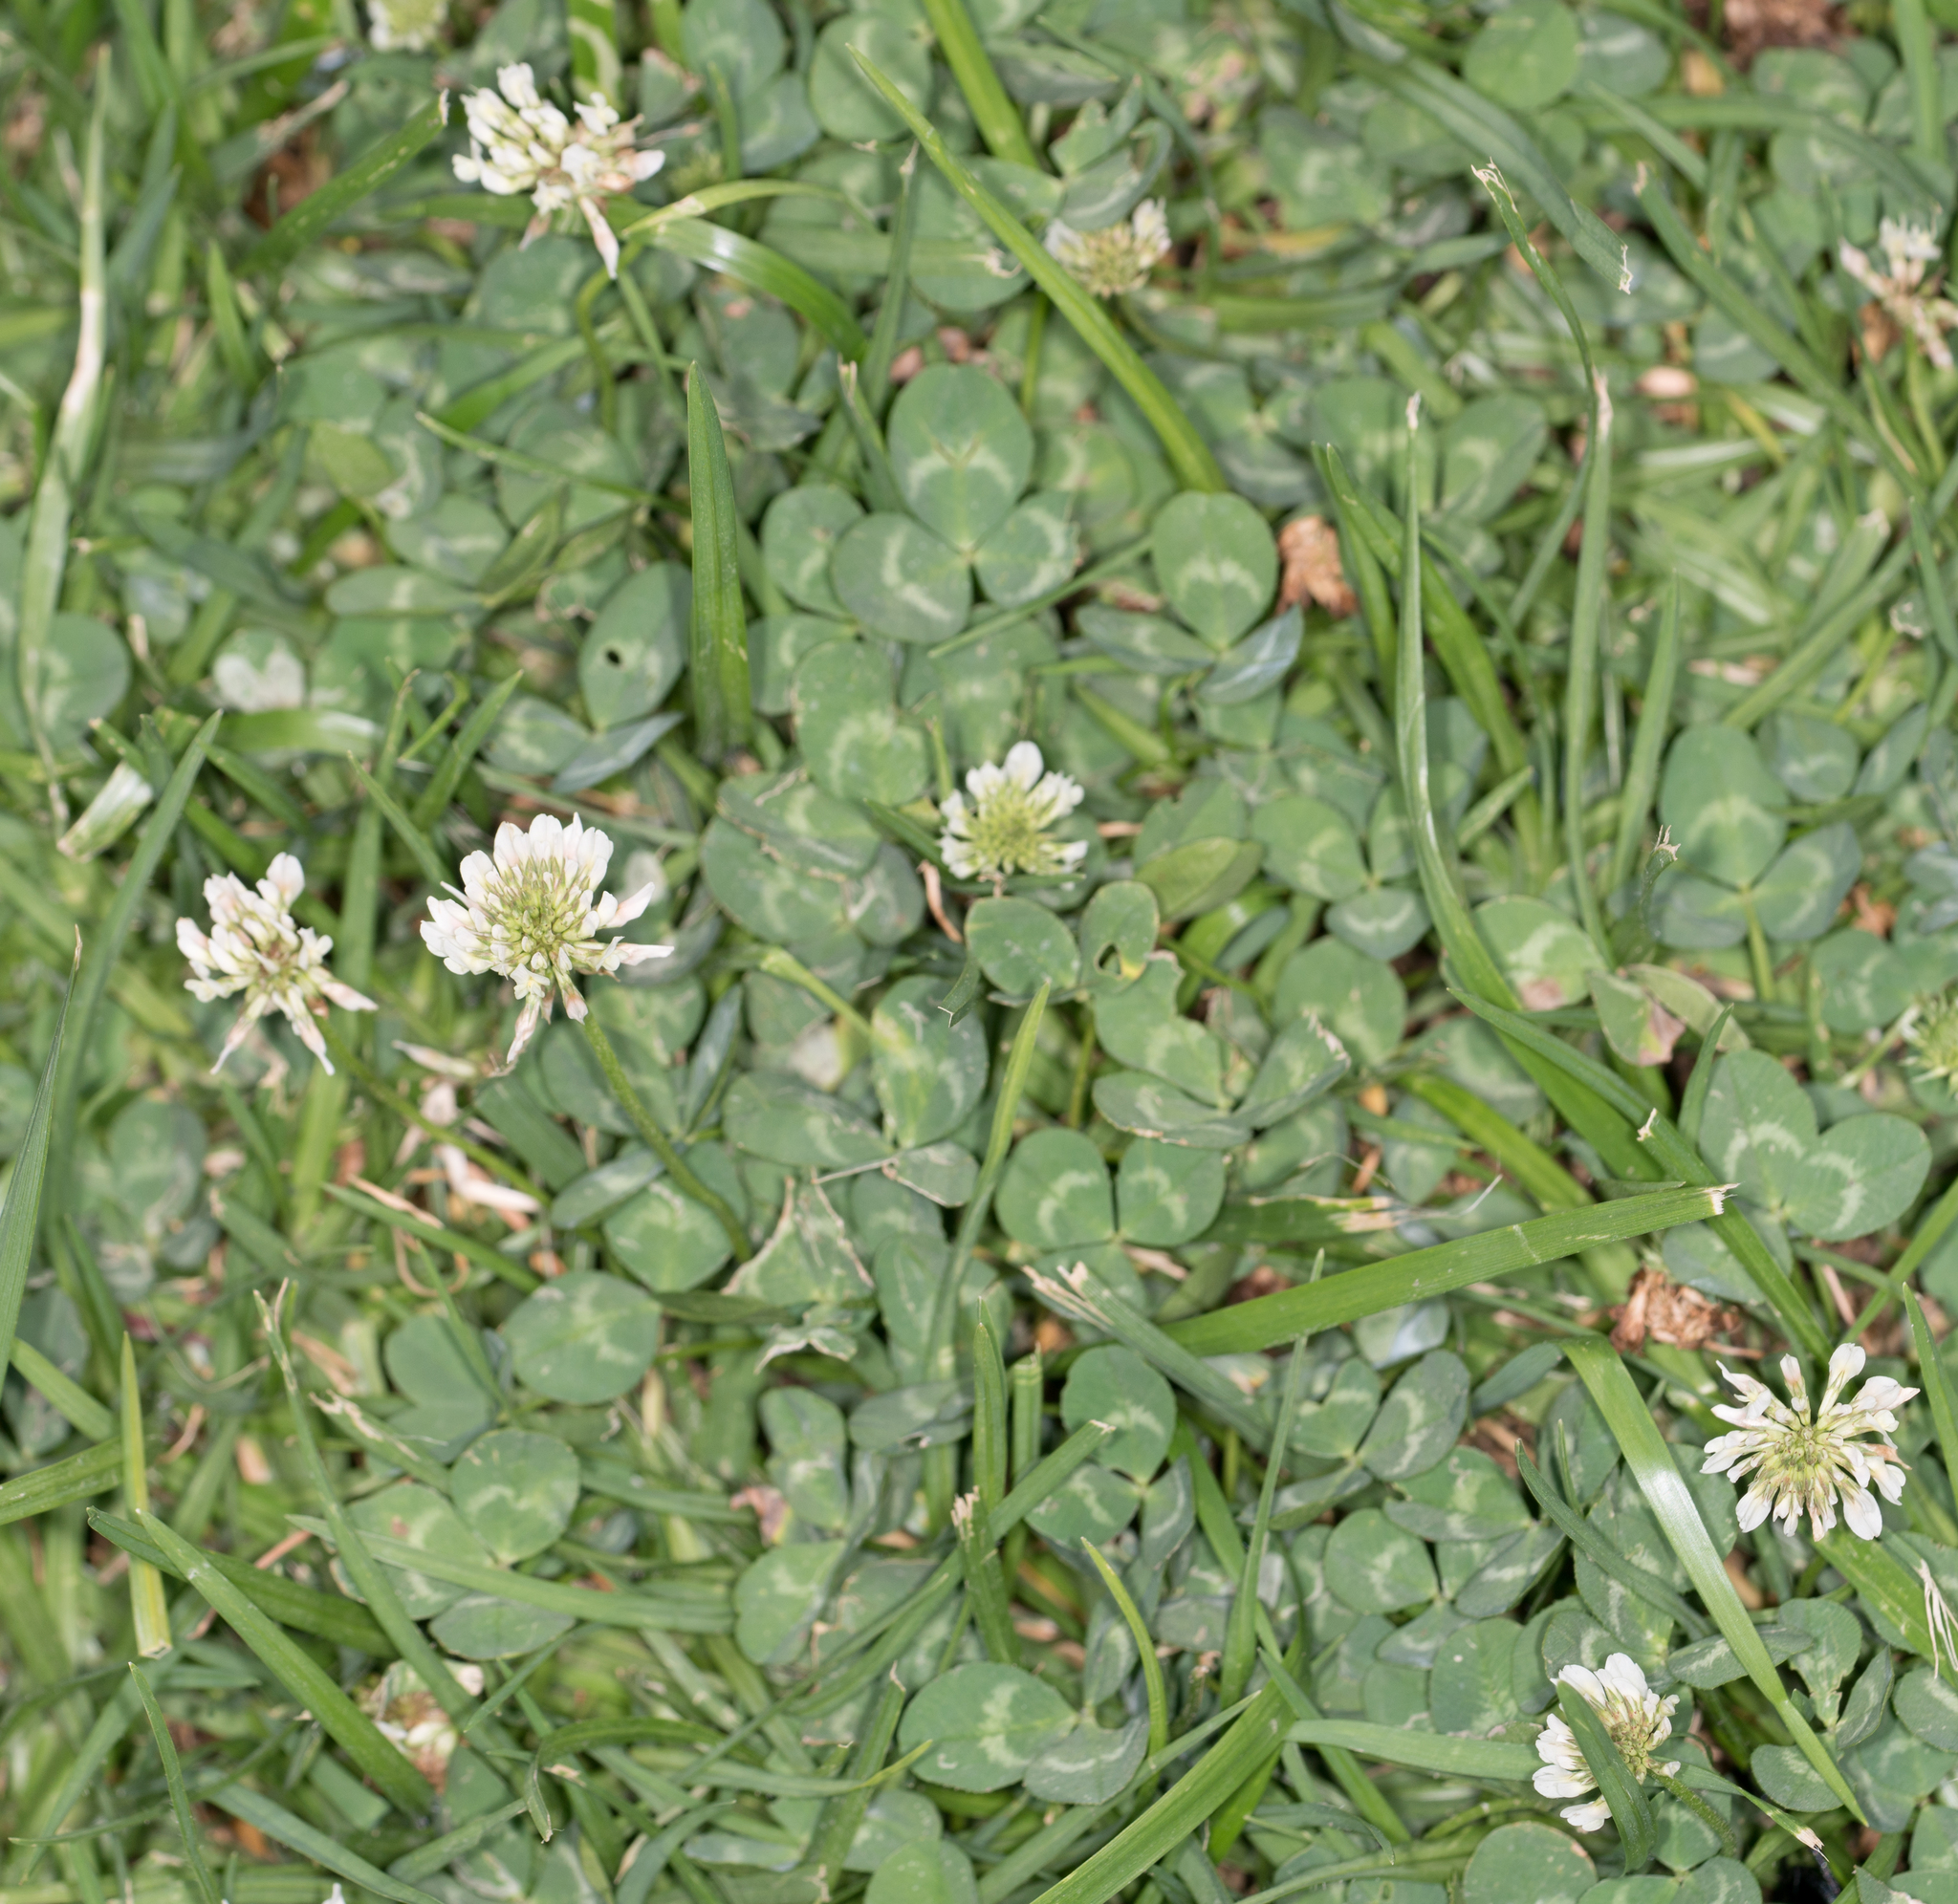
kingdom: Plantae
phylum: Tracheophyta
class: Magnoliopsida
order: Fabales
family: Fabaceae
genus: Trifolium
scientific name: Trifolium repens
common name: White clover
